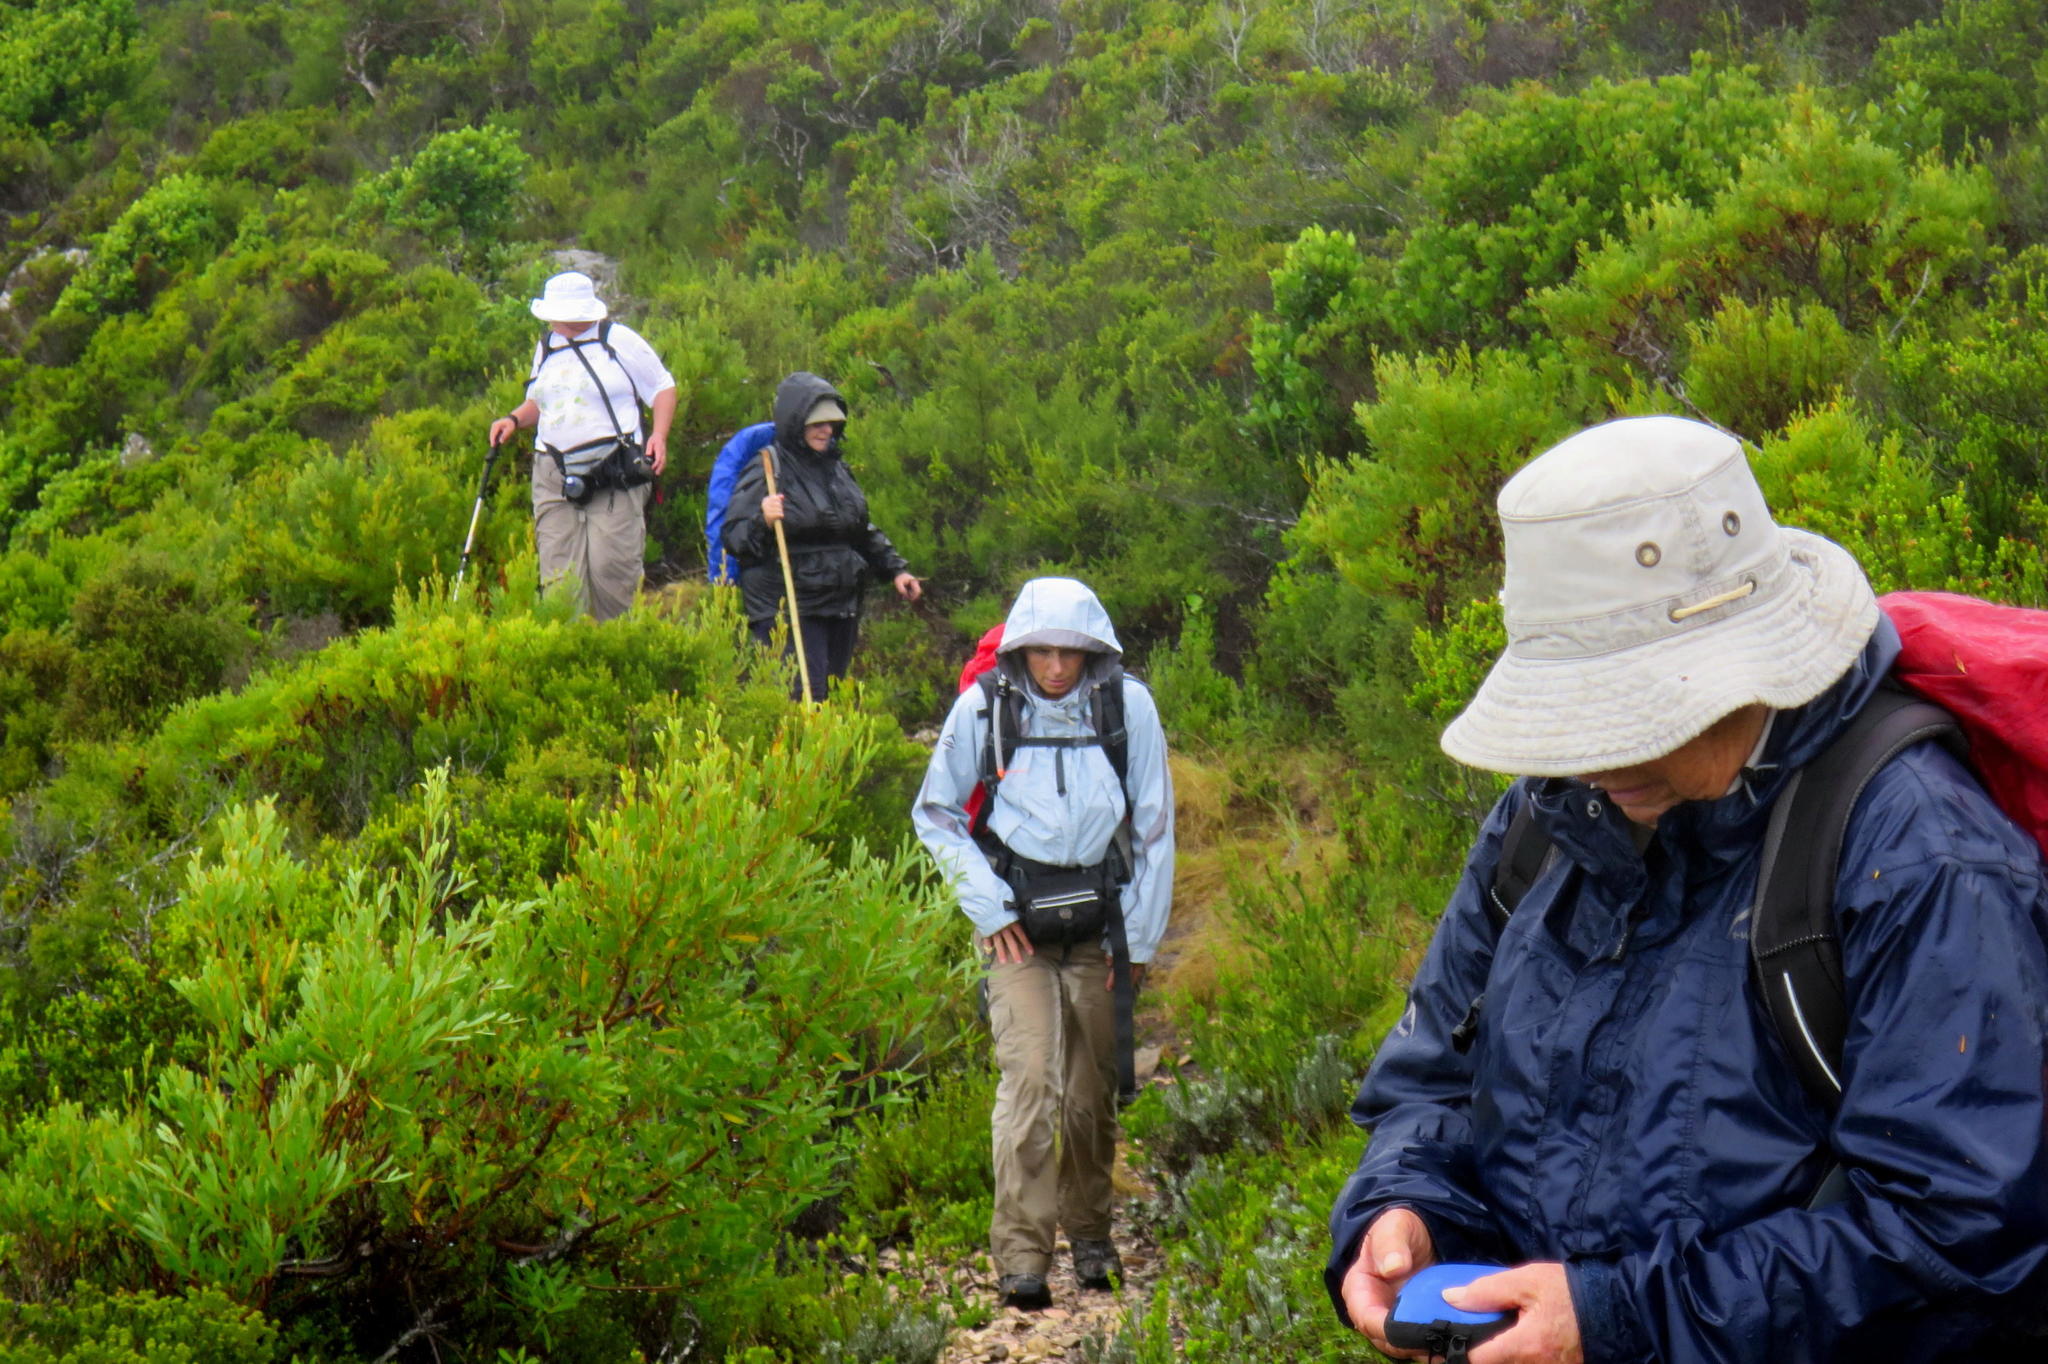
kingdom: Plantae
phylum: Tracheophyta
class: Magnoliopsida
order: Sapindales
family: Rutaceae
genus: Acmadenia
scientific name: Acmadenia alternifolia
